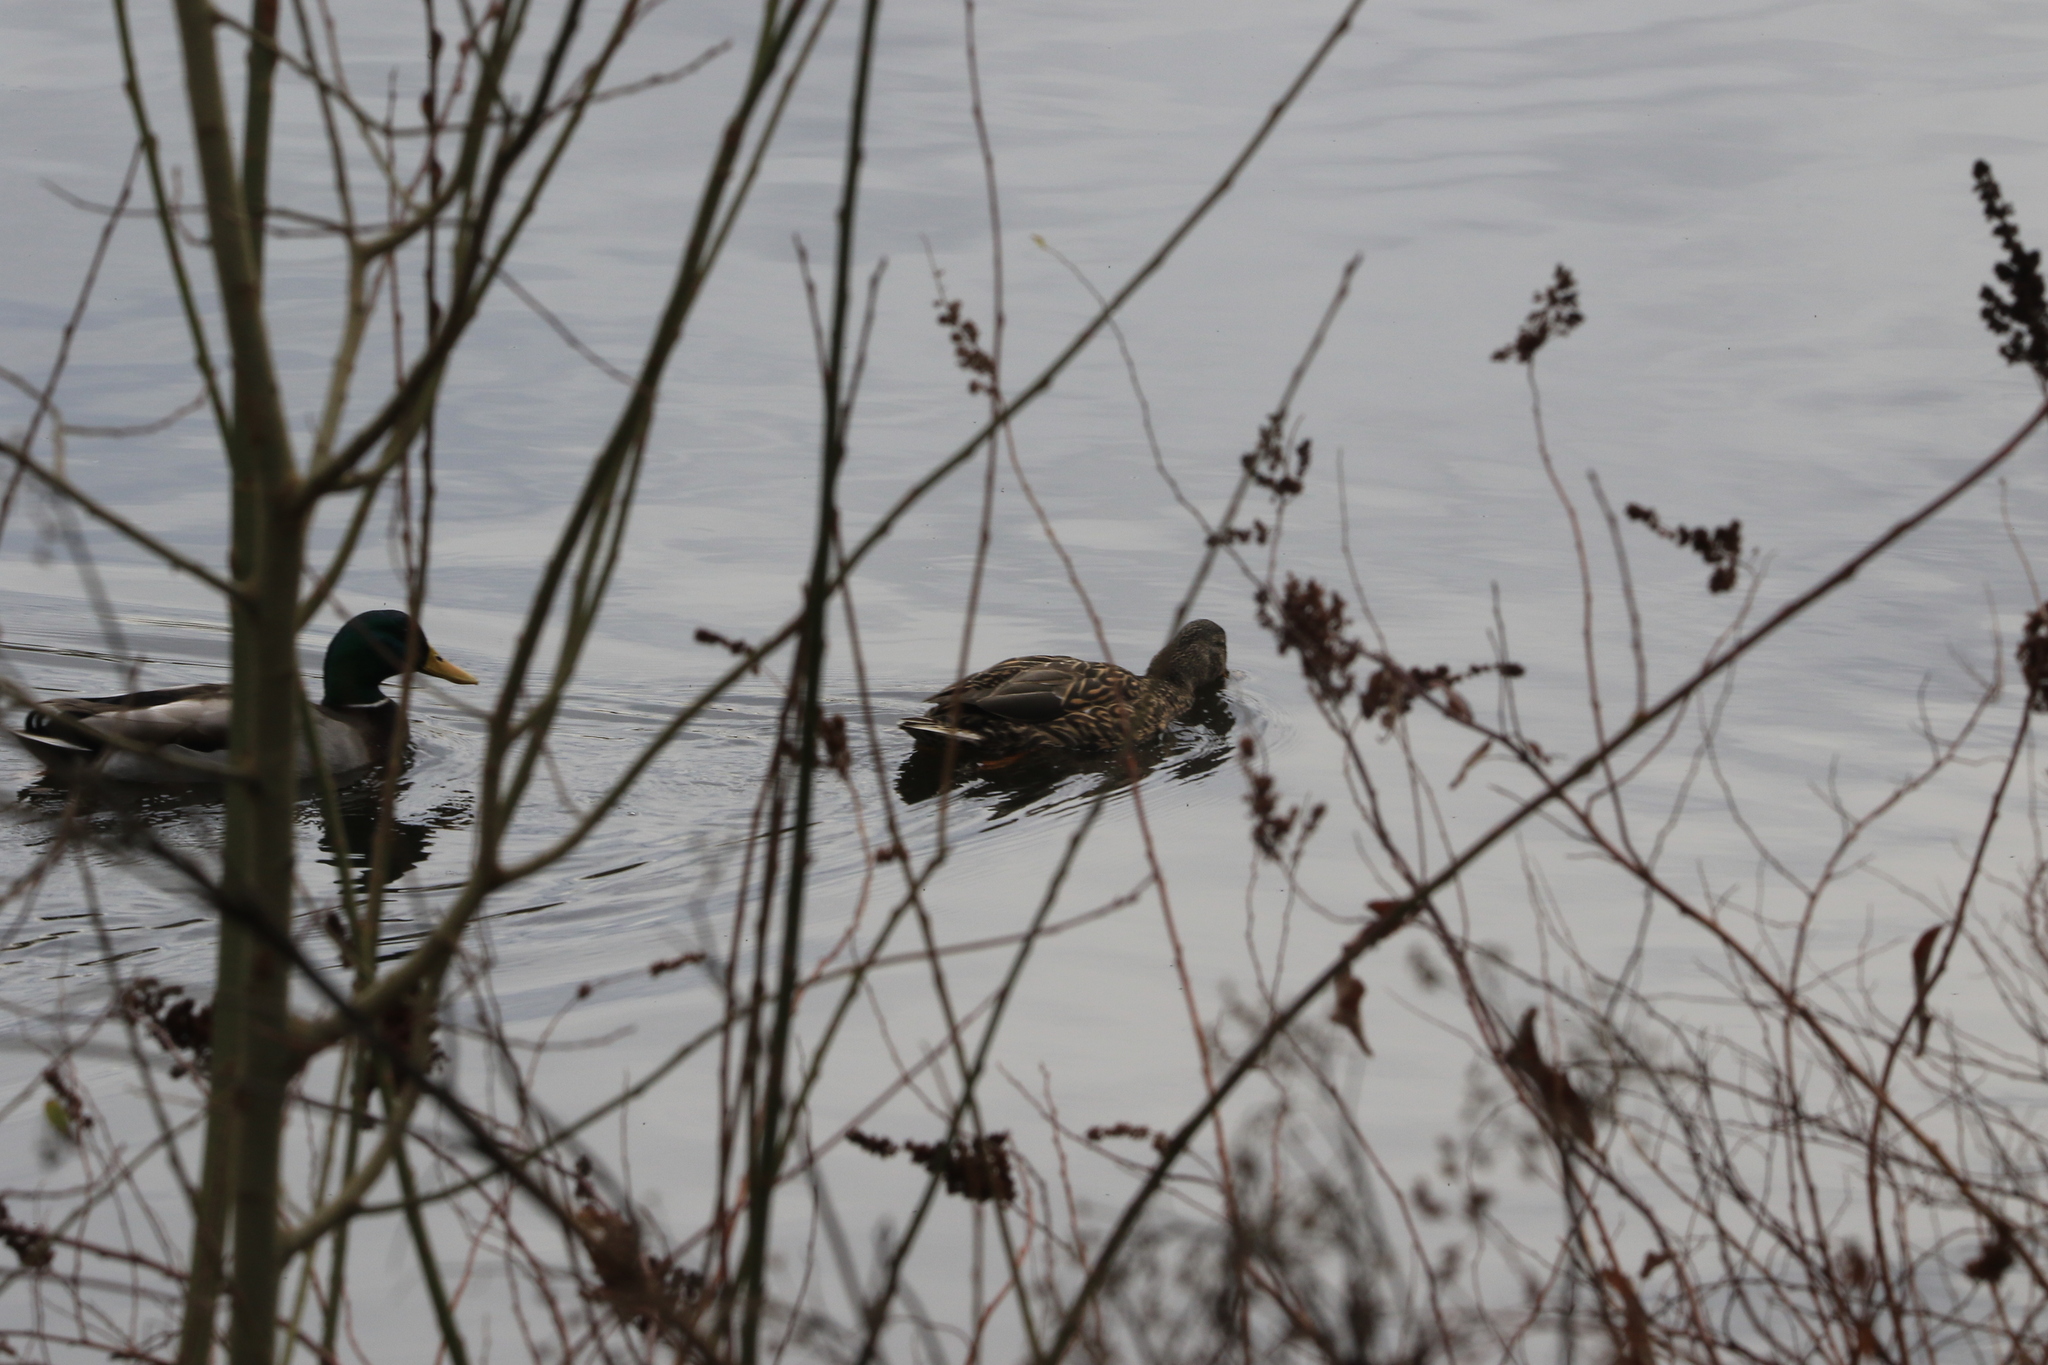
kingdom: Animalia
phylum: Chordata
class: Aves
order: Anseriformes
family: Anatidae
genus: Anas
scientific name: Anas platyrhynchos
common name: Mallard
